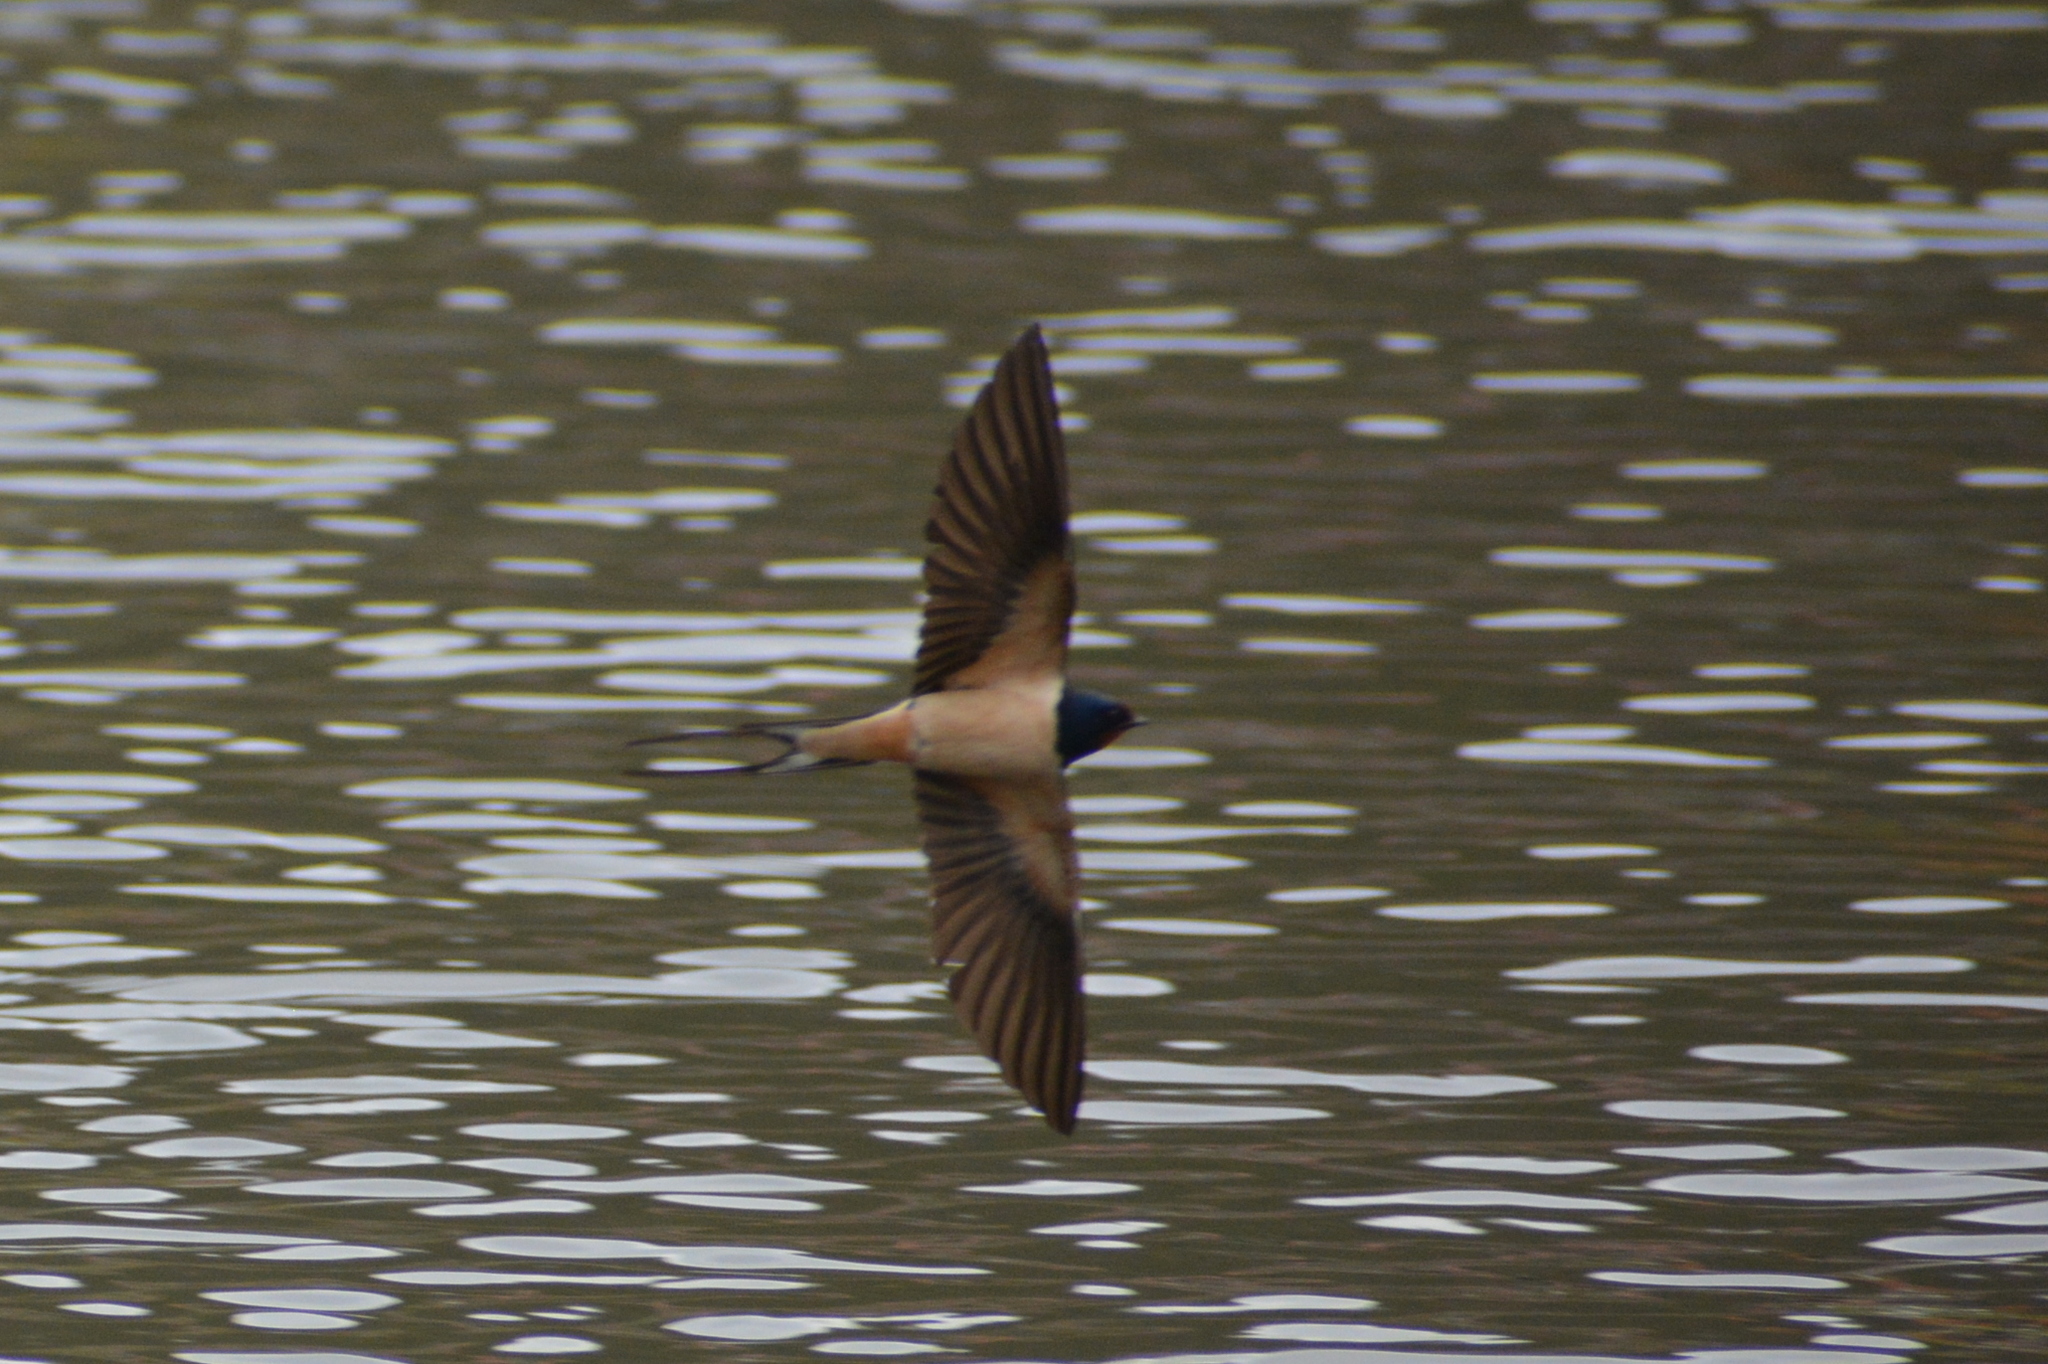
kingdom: Animalia
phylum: Chordata
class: Aves
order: Passeriformes
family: Hirundinidae
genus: Hirundo
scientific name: Hirundo rustica
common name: Barn swallow
